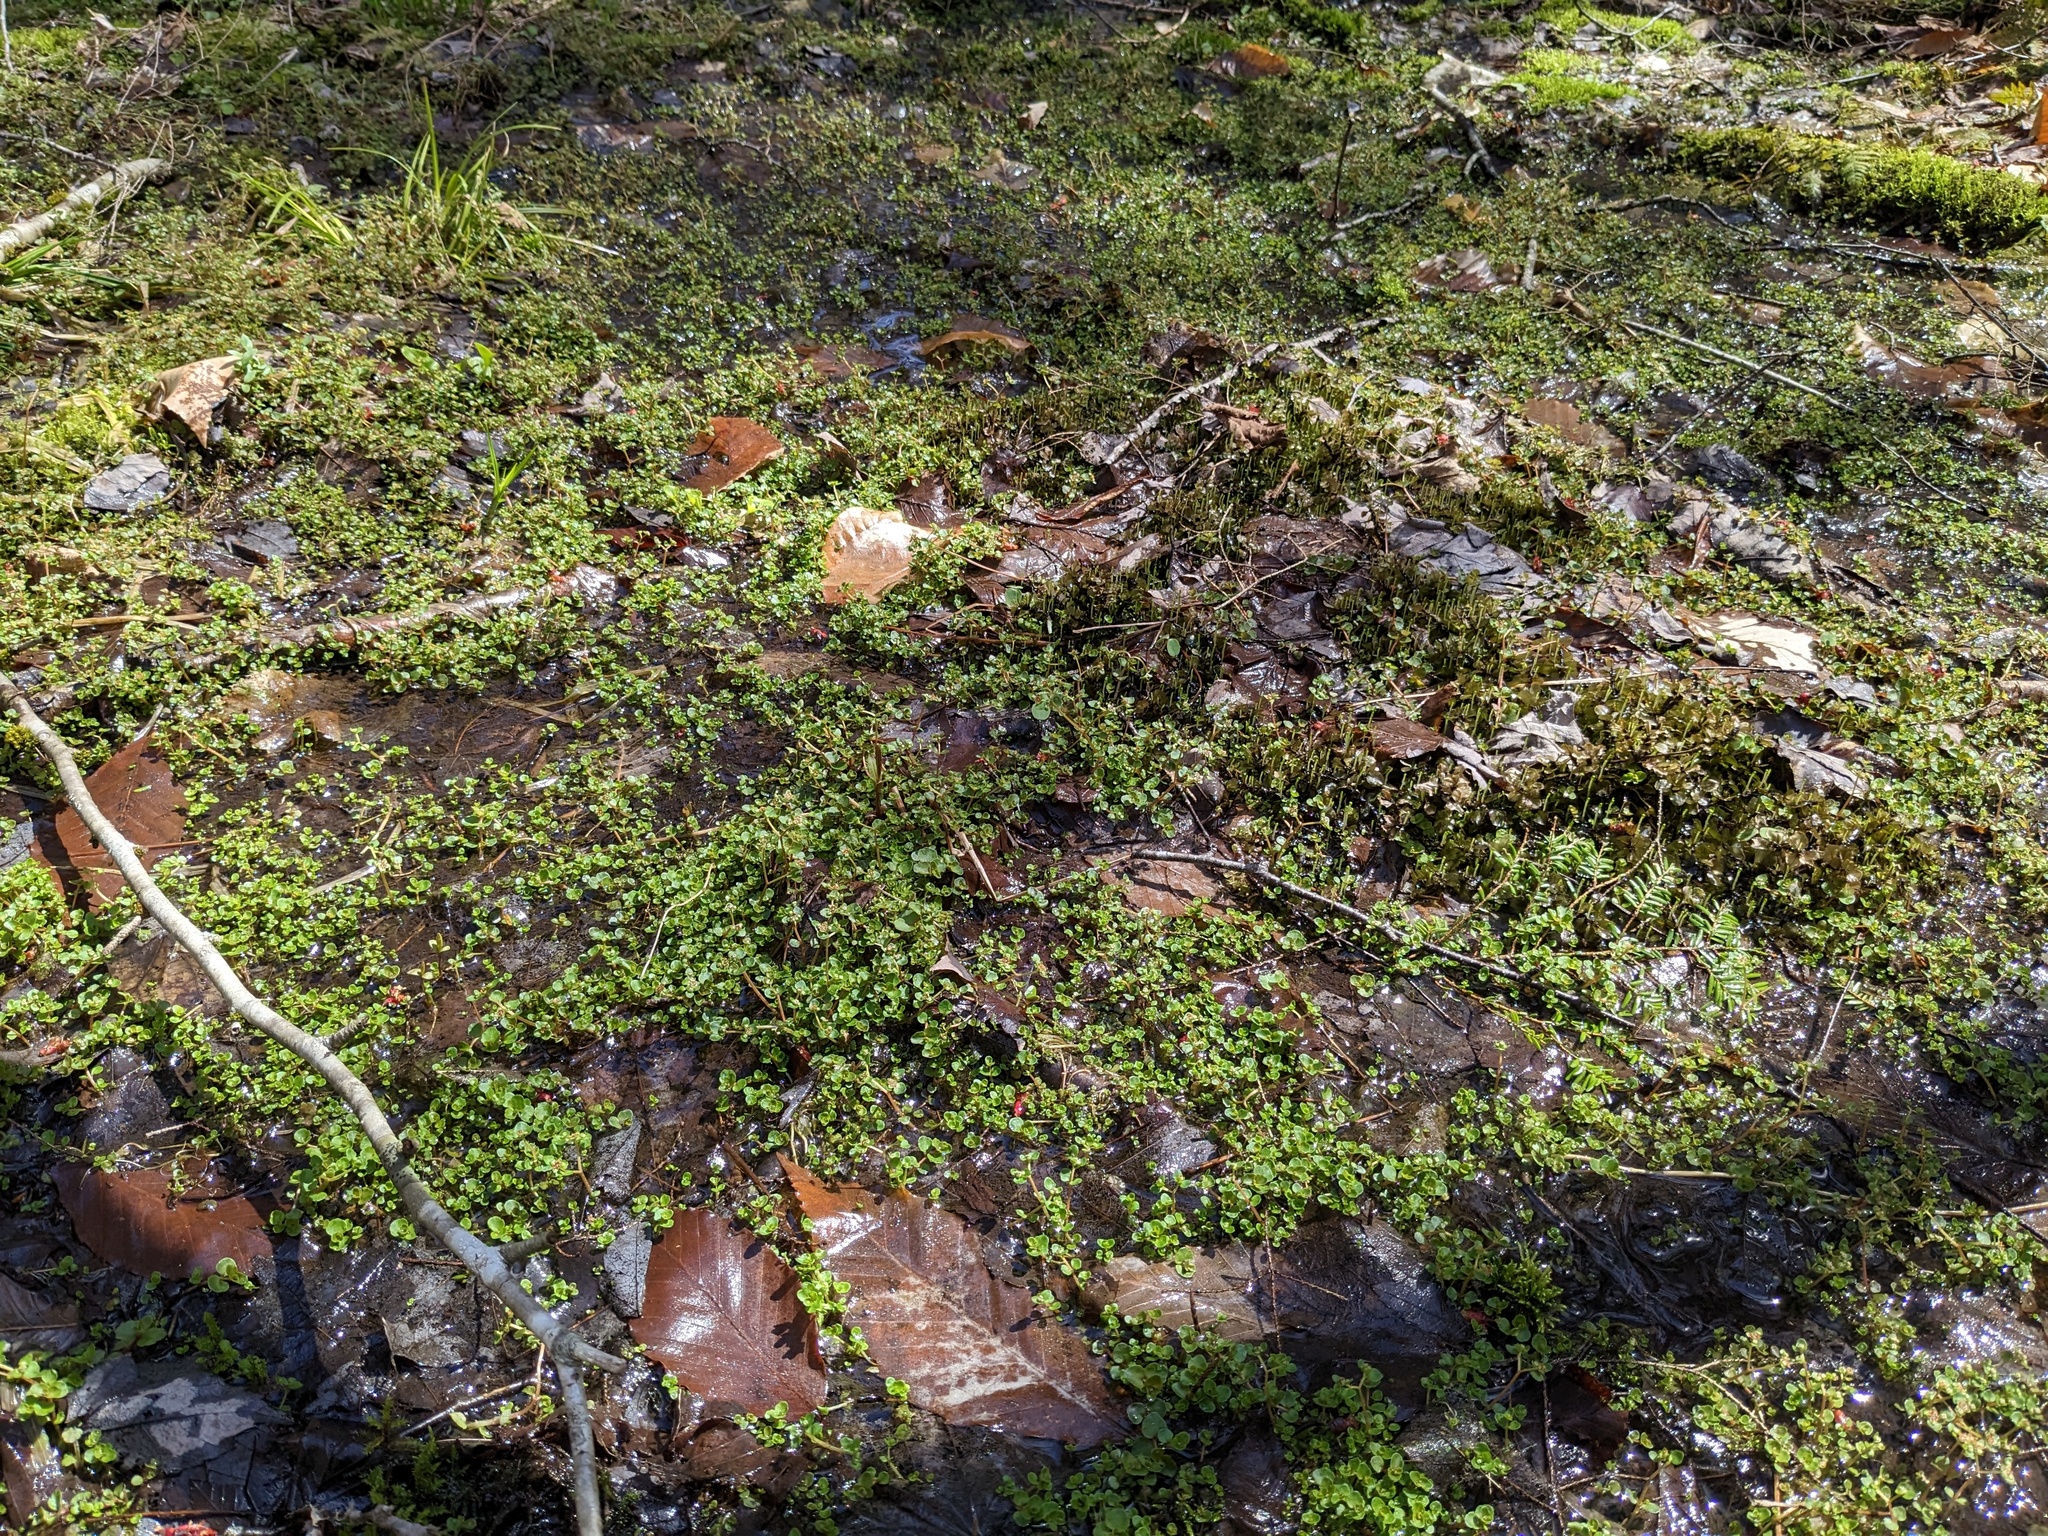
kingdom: Plantae
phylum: Tracheophyta
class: Magnoliopsida
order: Saxifragales
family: Saxifragaceae
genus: Chrysosplenium
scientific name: Chrysosplenium americanum
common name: American golden-saxifrage
